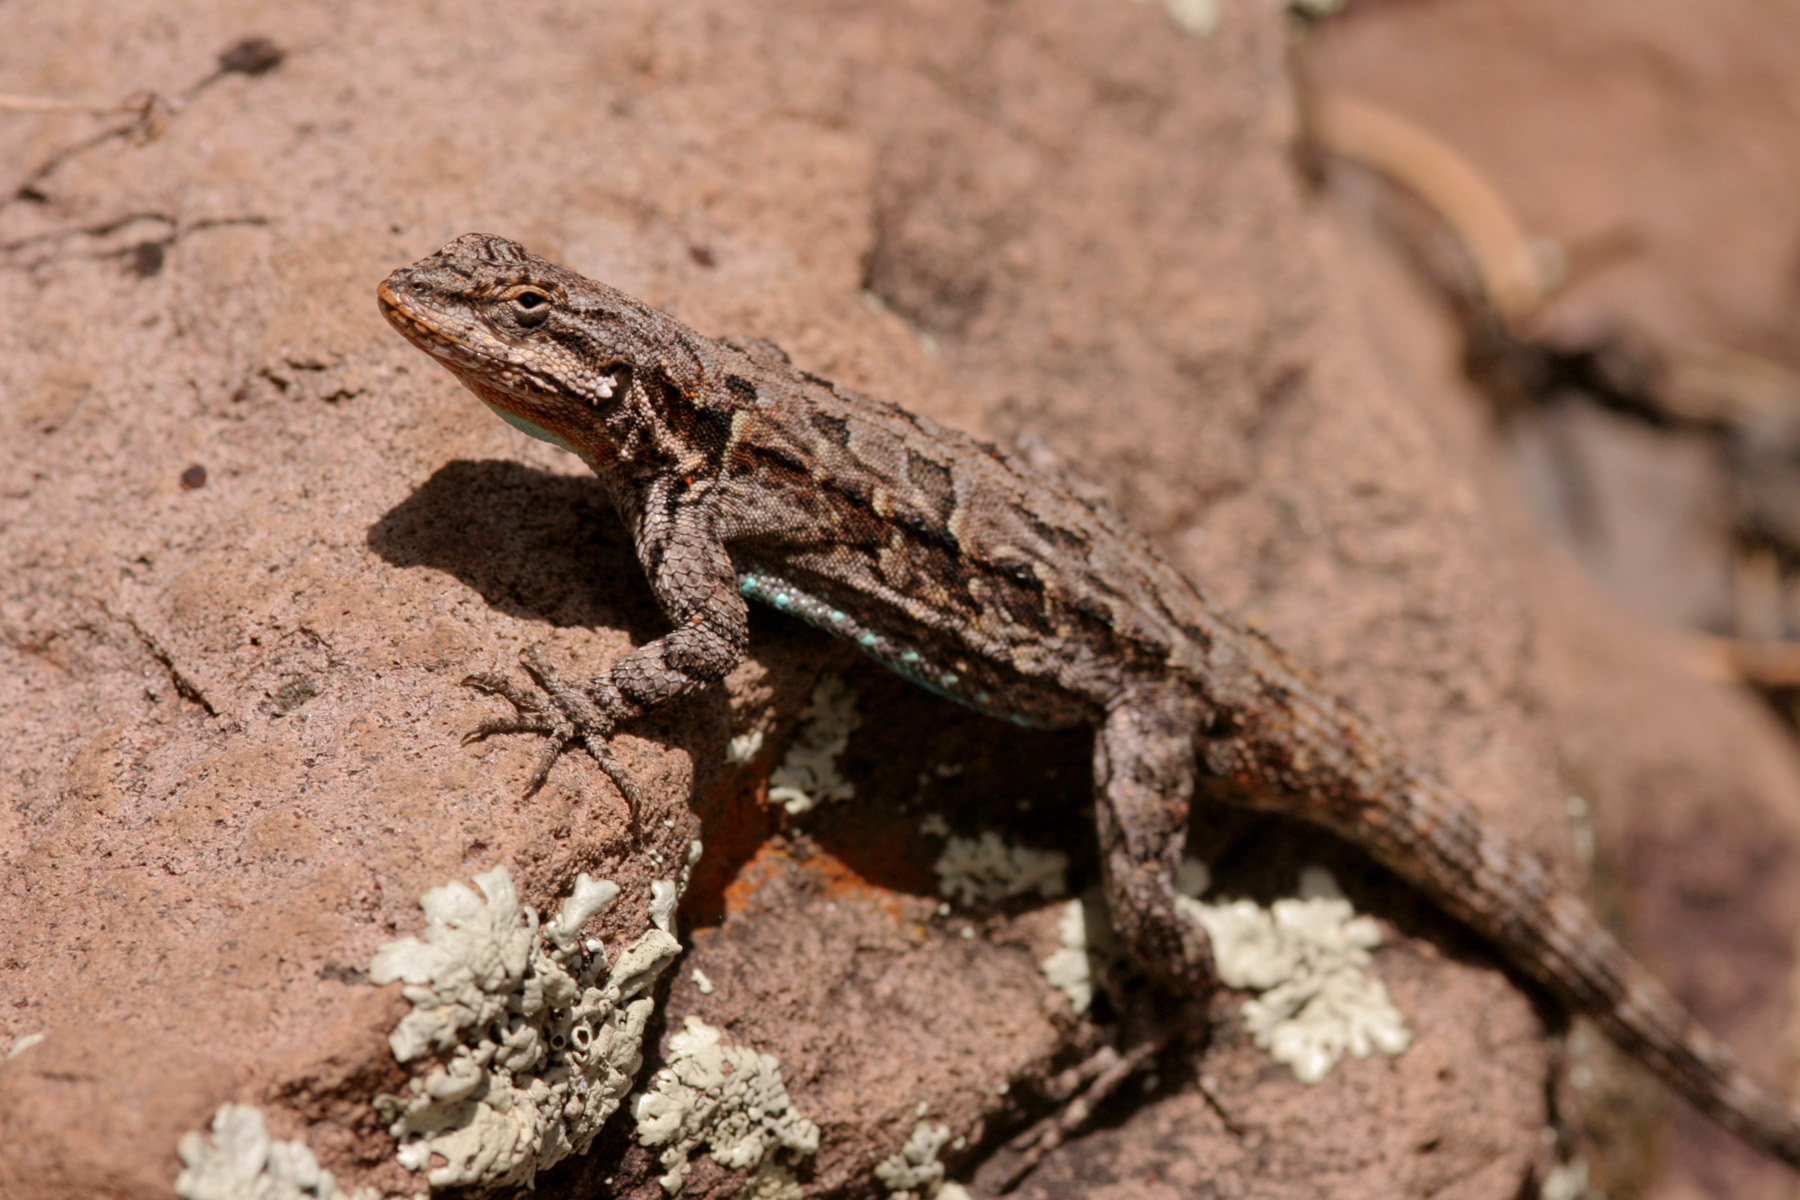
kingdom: Animalia
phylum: Chordata
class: Squamata
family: Phrynosomatidae
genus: Urosaurus
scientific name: Urosaurus ornatus
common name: Ornate tree lizard
